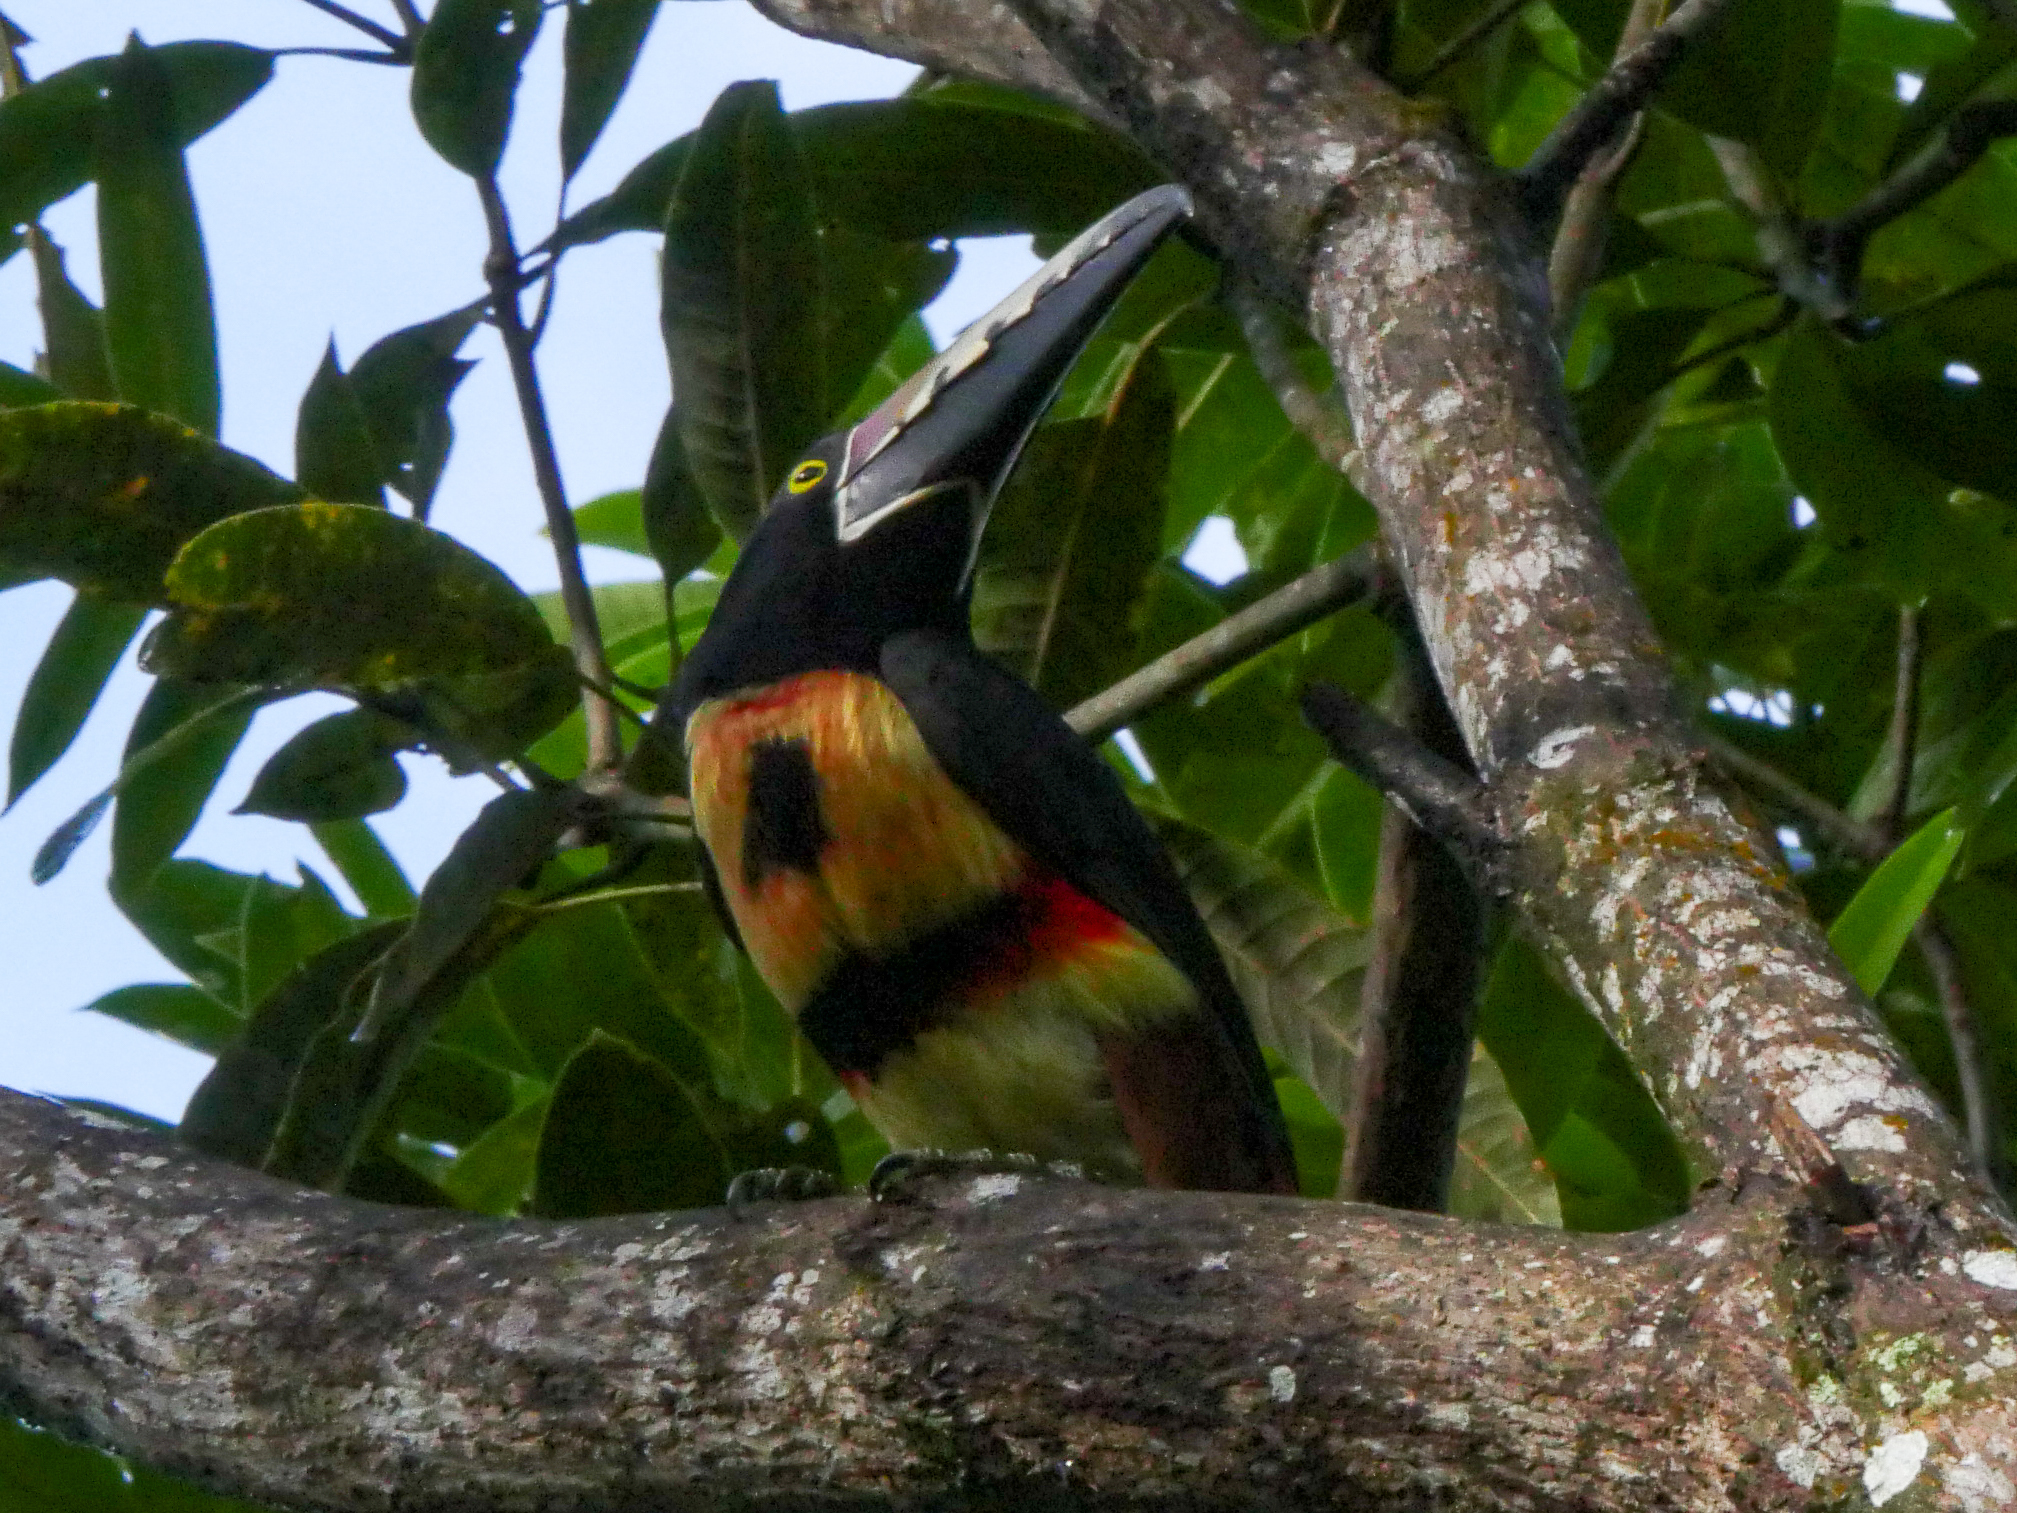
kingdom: Animalia
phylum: Chordata
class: Aves
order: Piciformes
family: Ramphastidae
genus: Pteroglossus
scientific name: Pteroglossus torquatus
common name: Collared aracari
